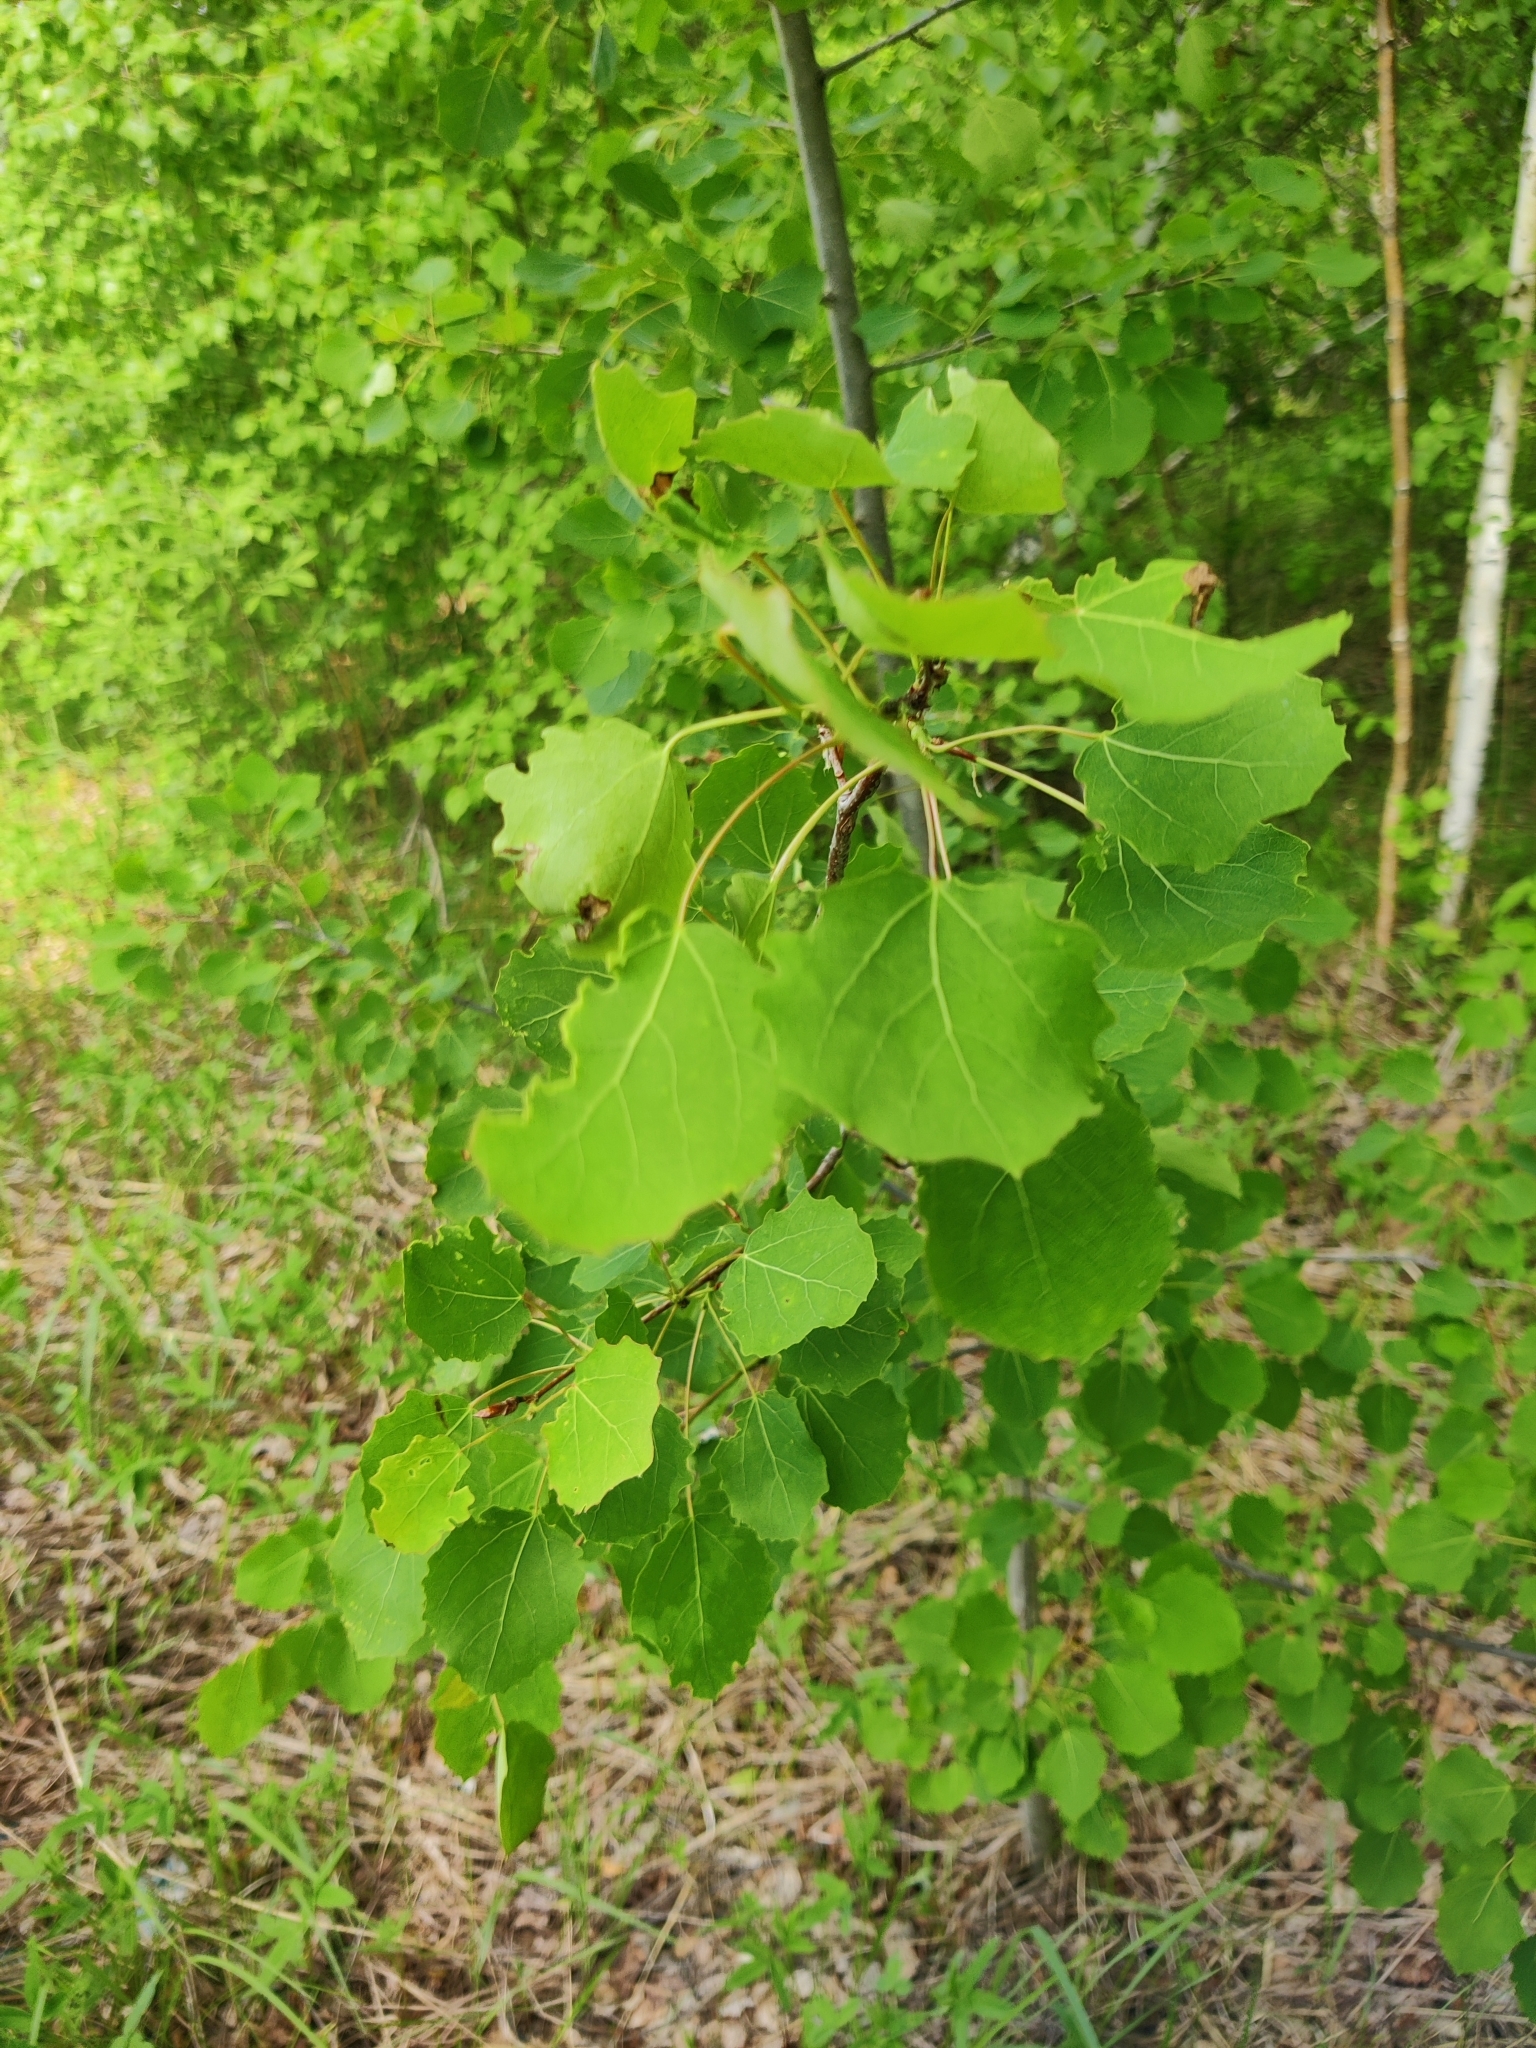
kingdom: Plantae
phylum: Tracheophyta
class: Magnoliopsida
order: Malpighiales
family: Salicaceae
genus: Populus
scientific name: Populus tremula
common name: European aspen
